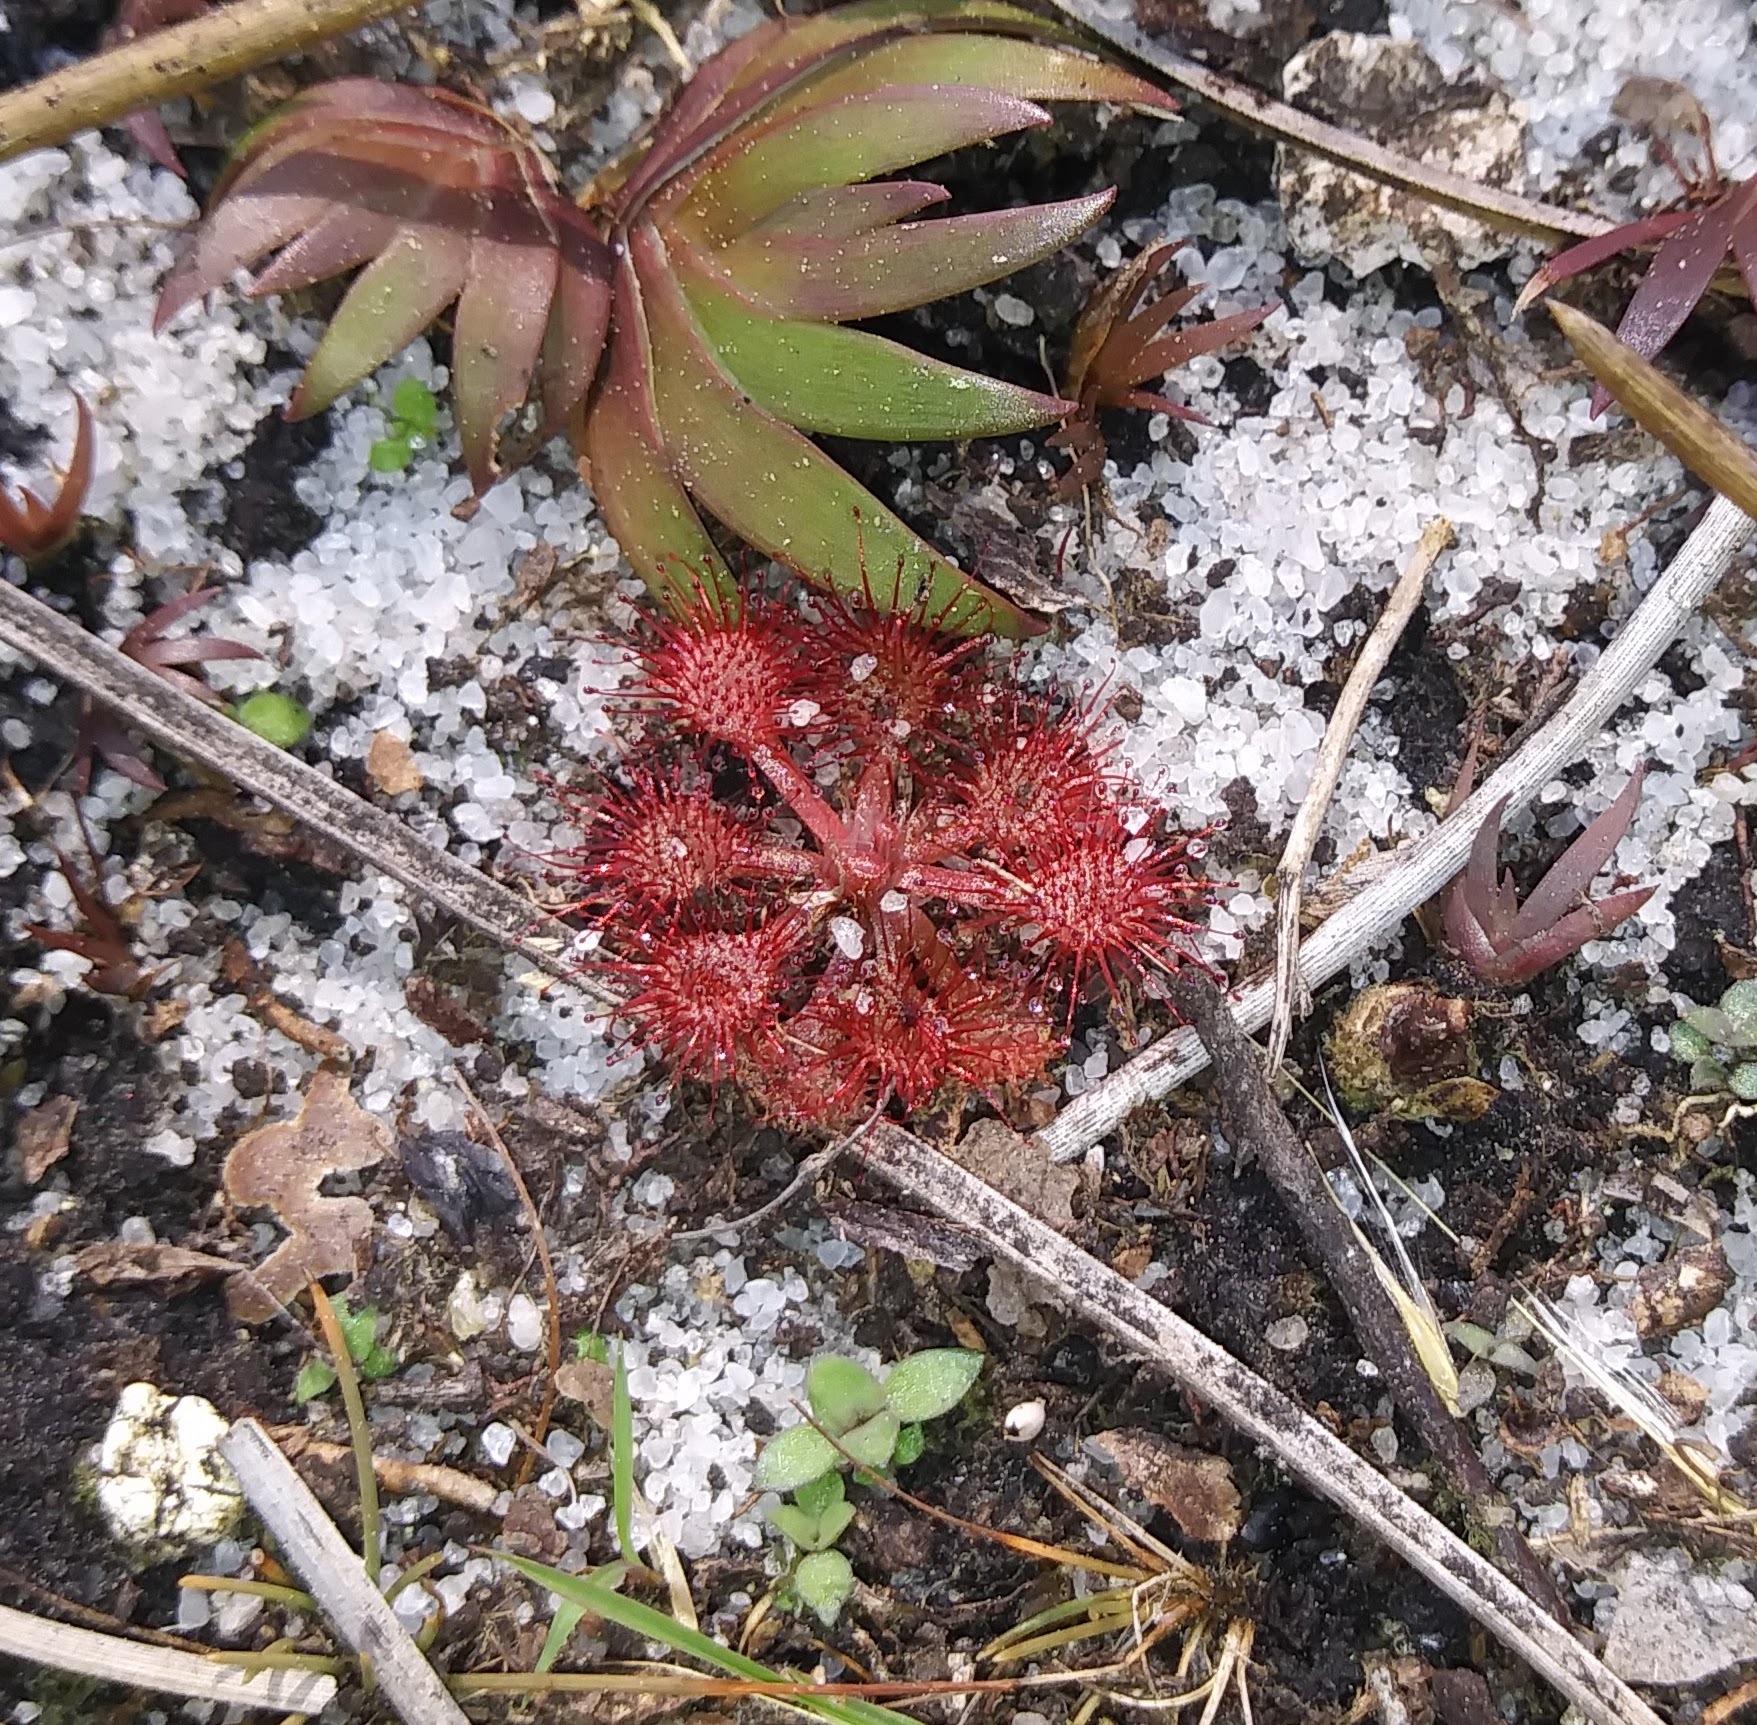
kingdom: Plantae
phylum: Tracheophyta
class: Magnoliopsida
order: Caryophyllales
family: Droseraceae
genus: Drosera
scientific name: Drosera capillaris
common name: Pink sundew
